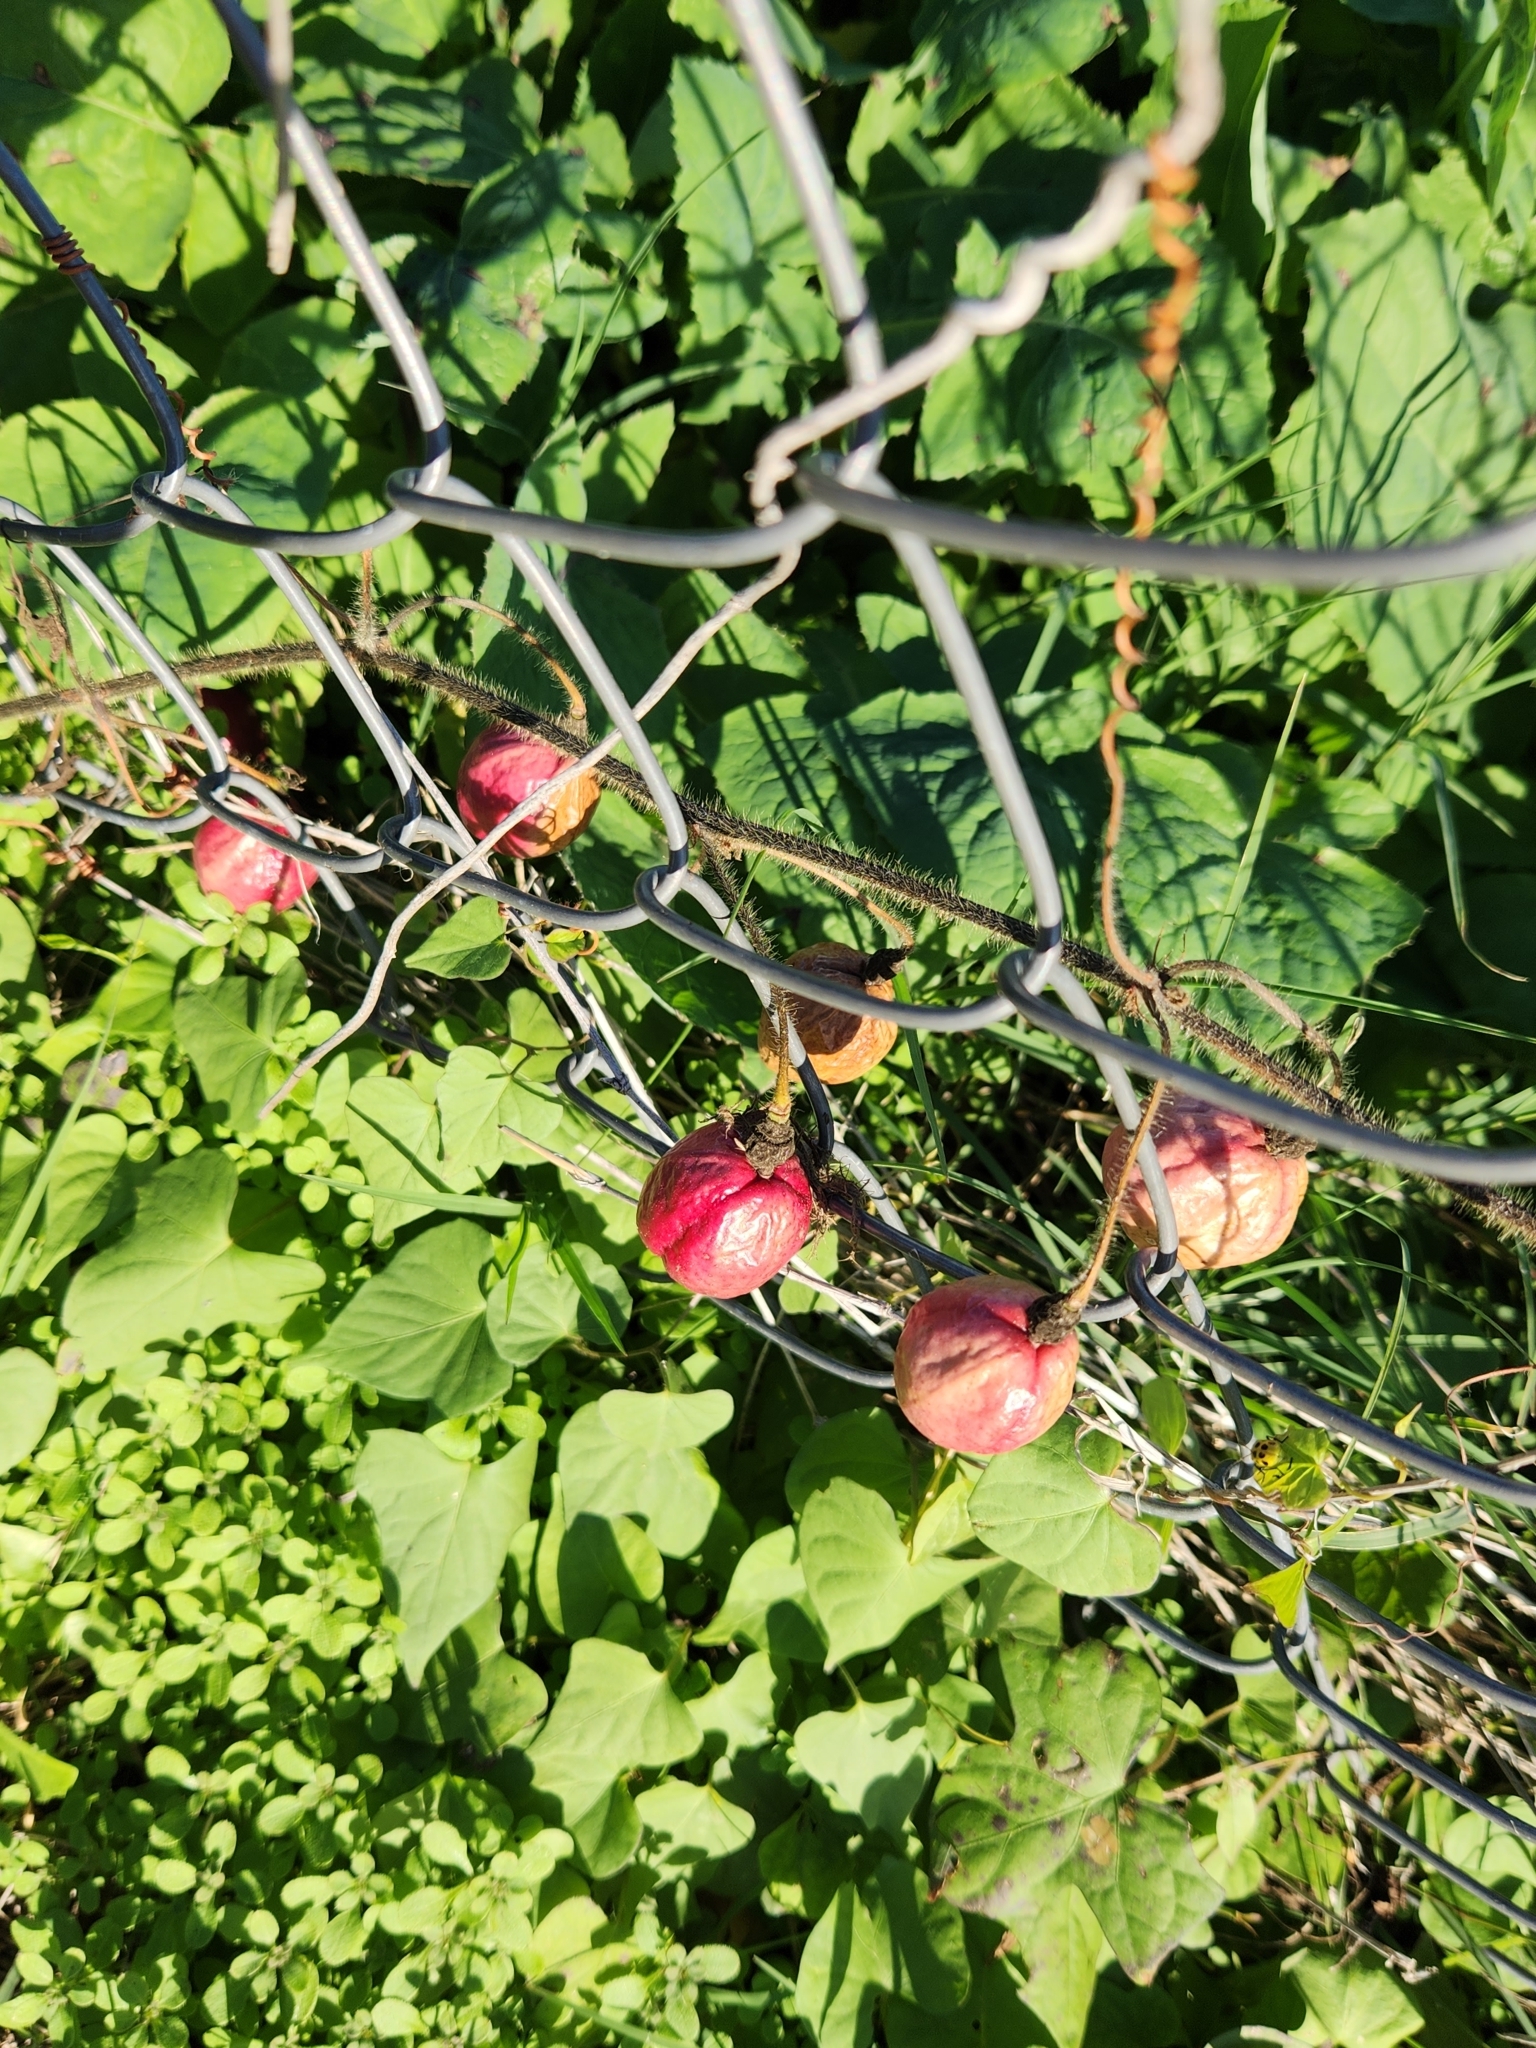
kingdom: Plantae
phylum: Tracheophyta
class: Magnoliopsida
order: Malpighiales
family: Passifloraceae
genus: Passiflora
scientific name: Passiflora
